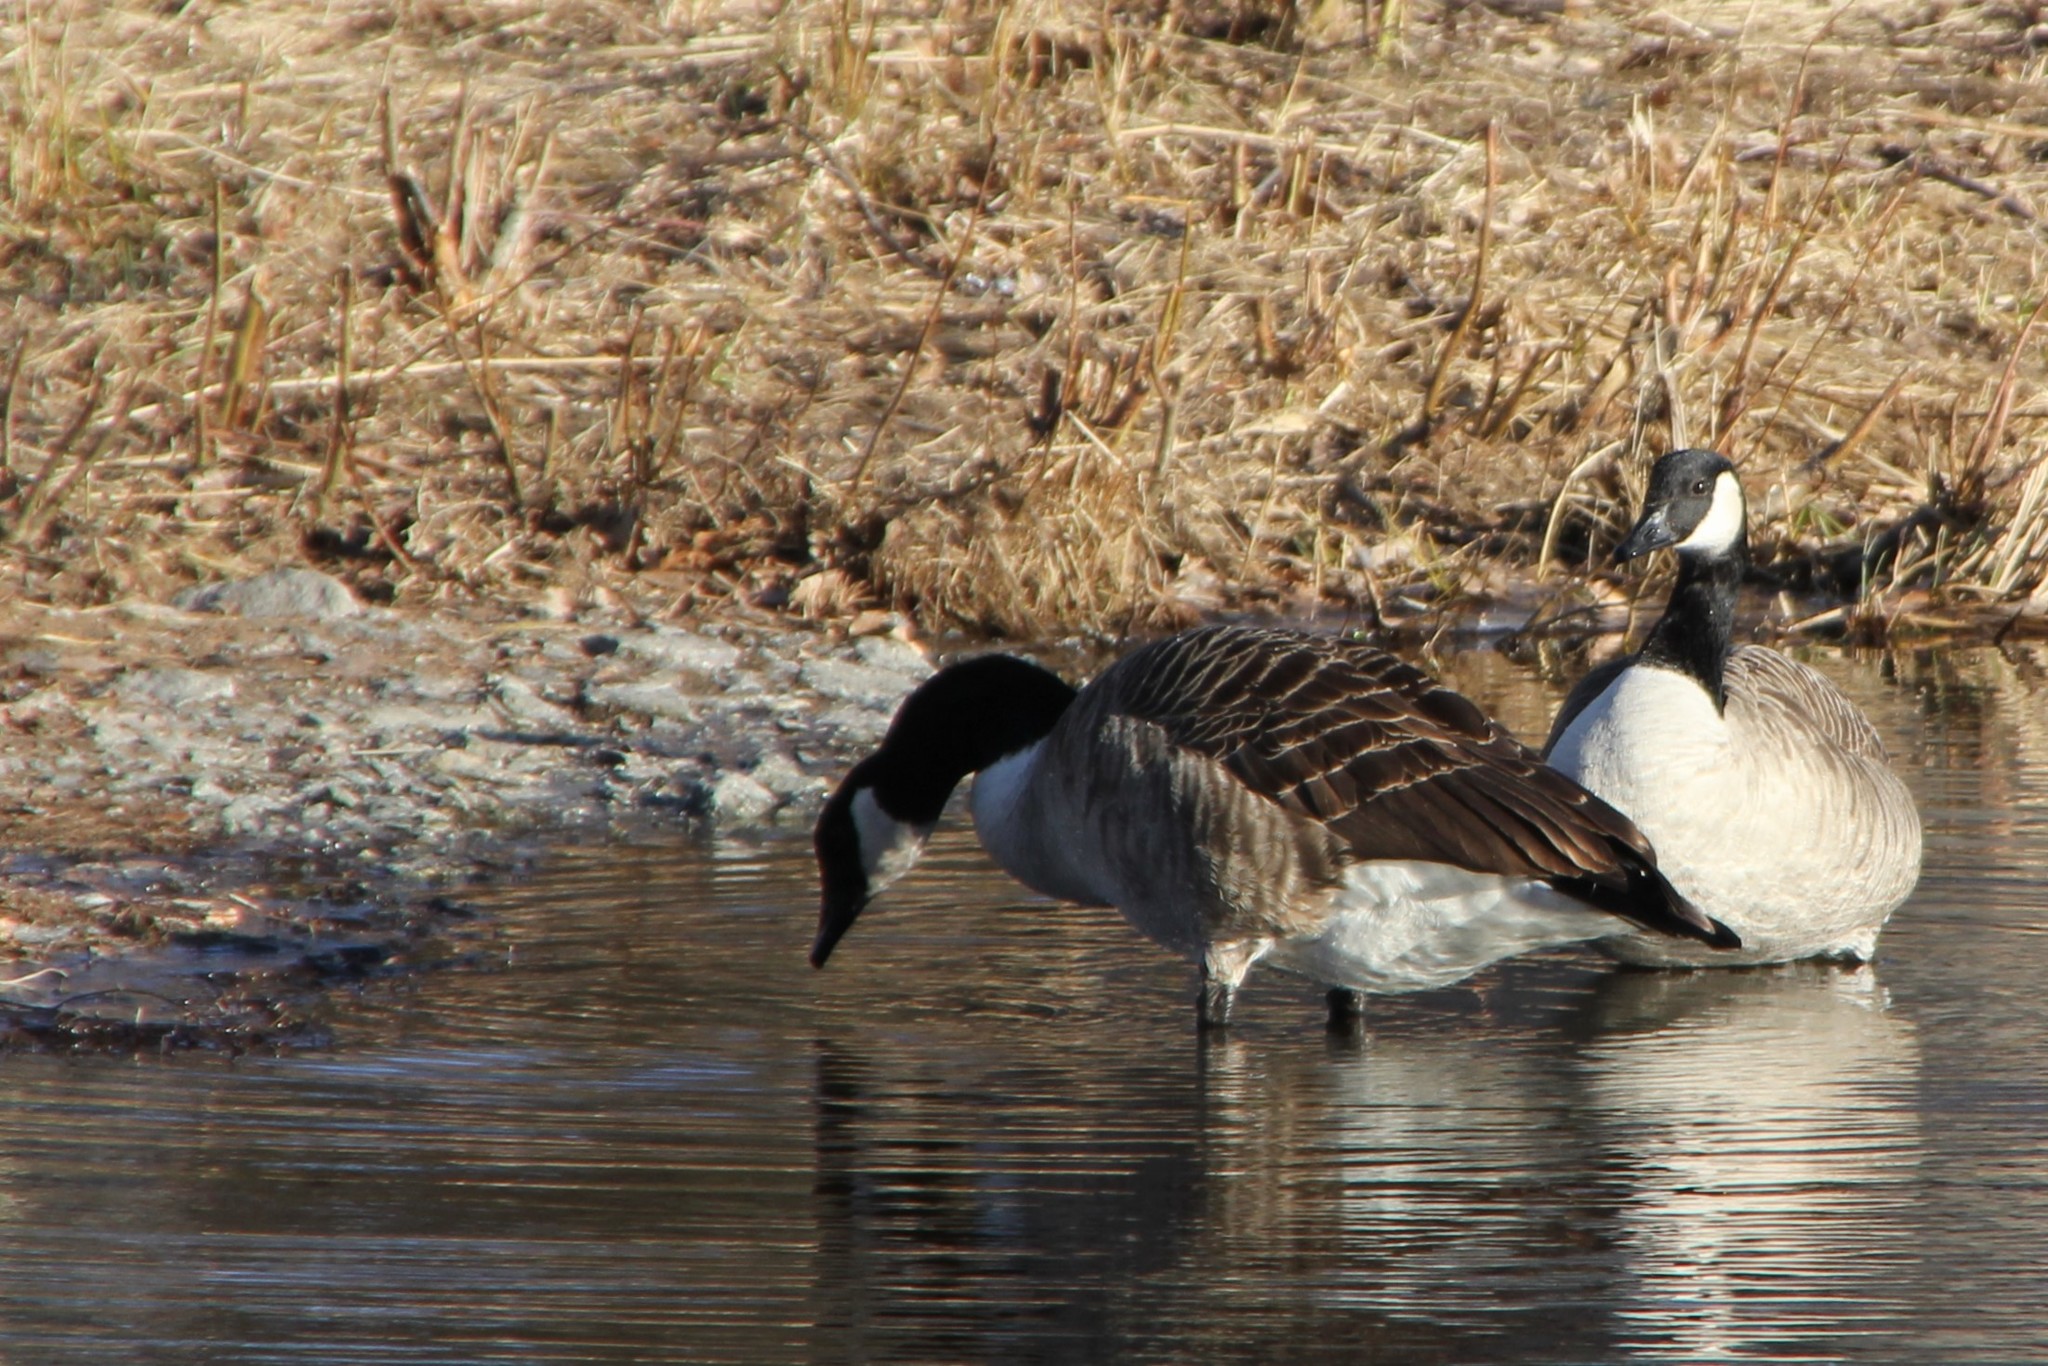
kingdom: Animalia
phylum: Chordata
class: Aves
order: Anseriformes
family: Anatidae
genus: Branta
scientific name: Branta canadensis
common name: Canada goose
